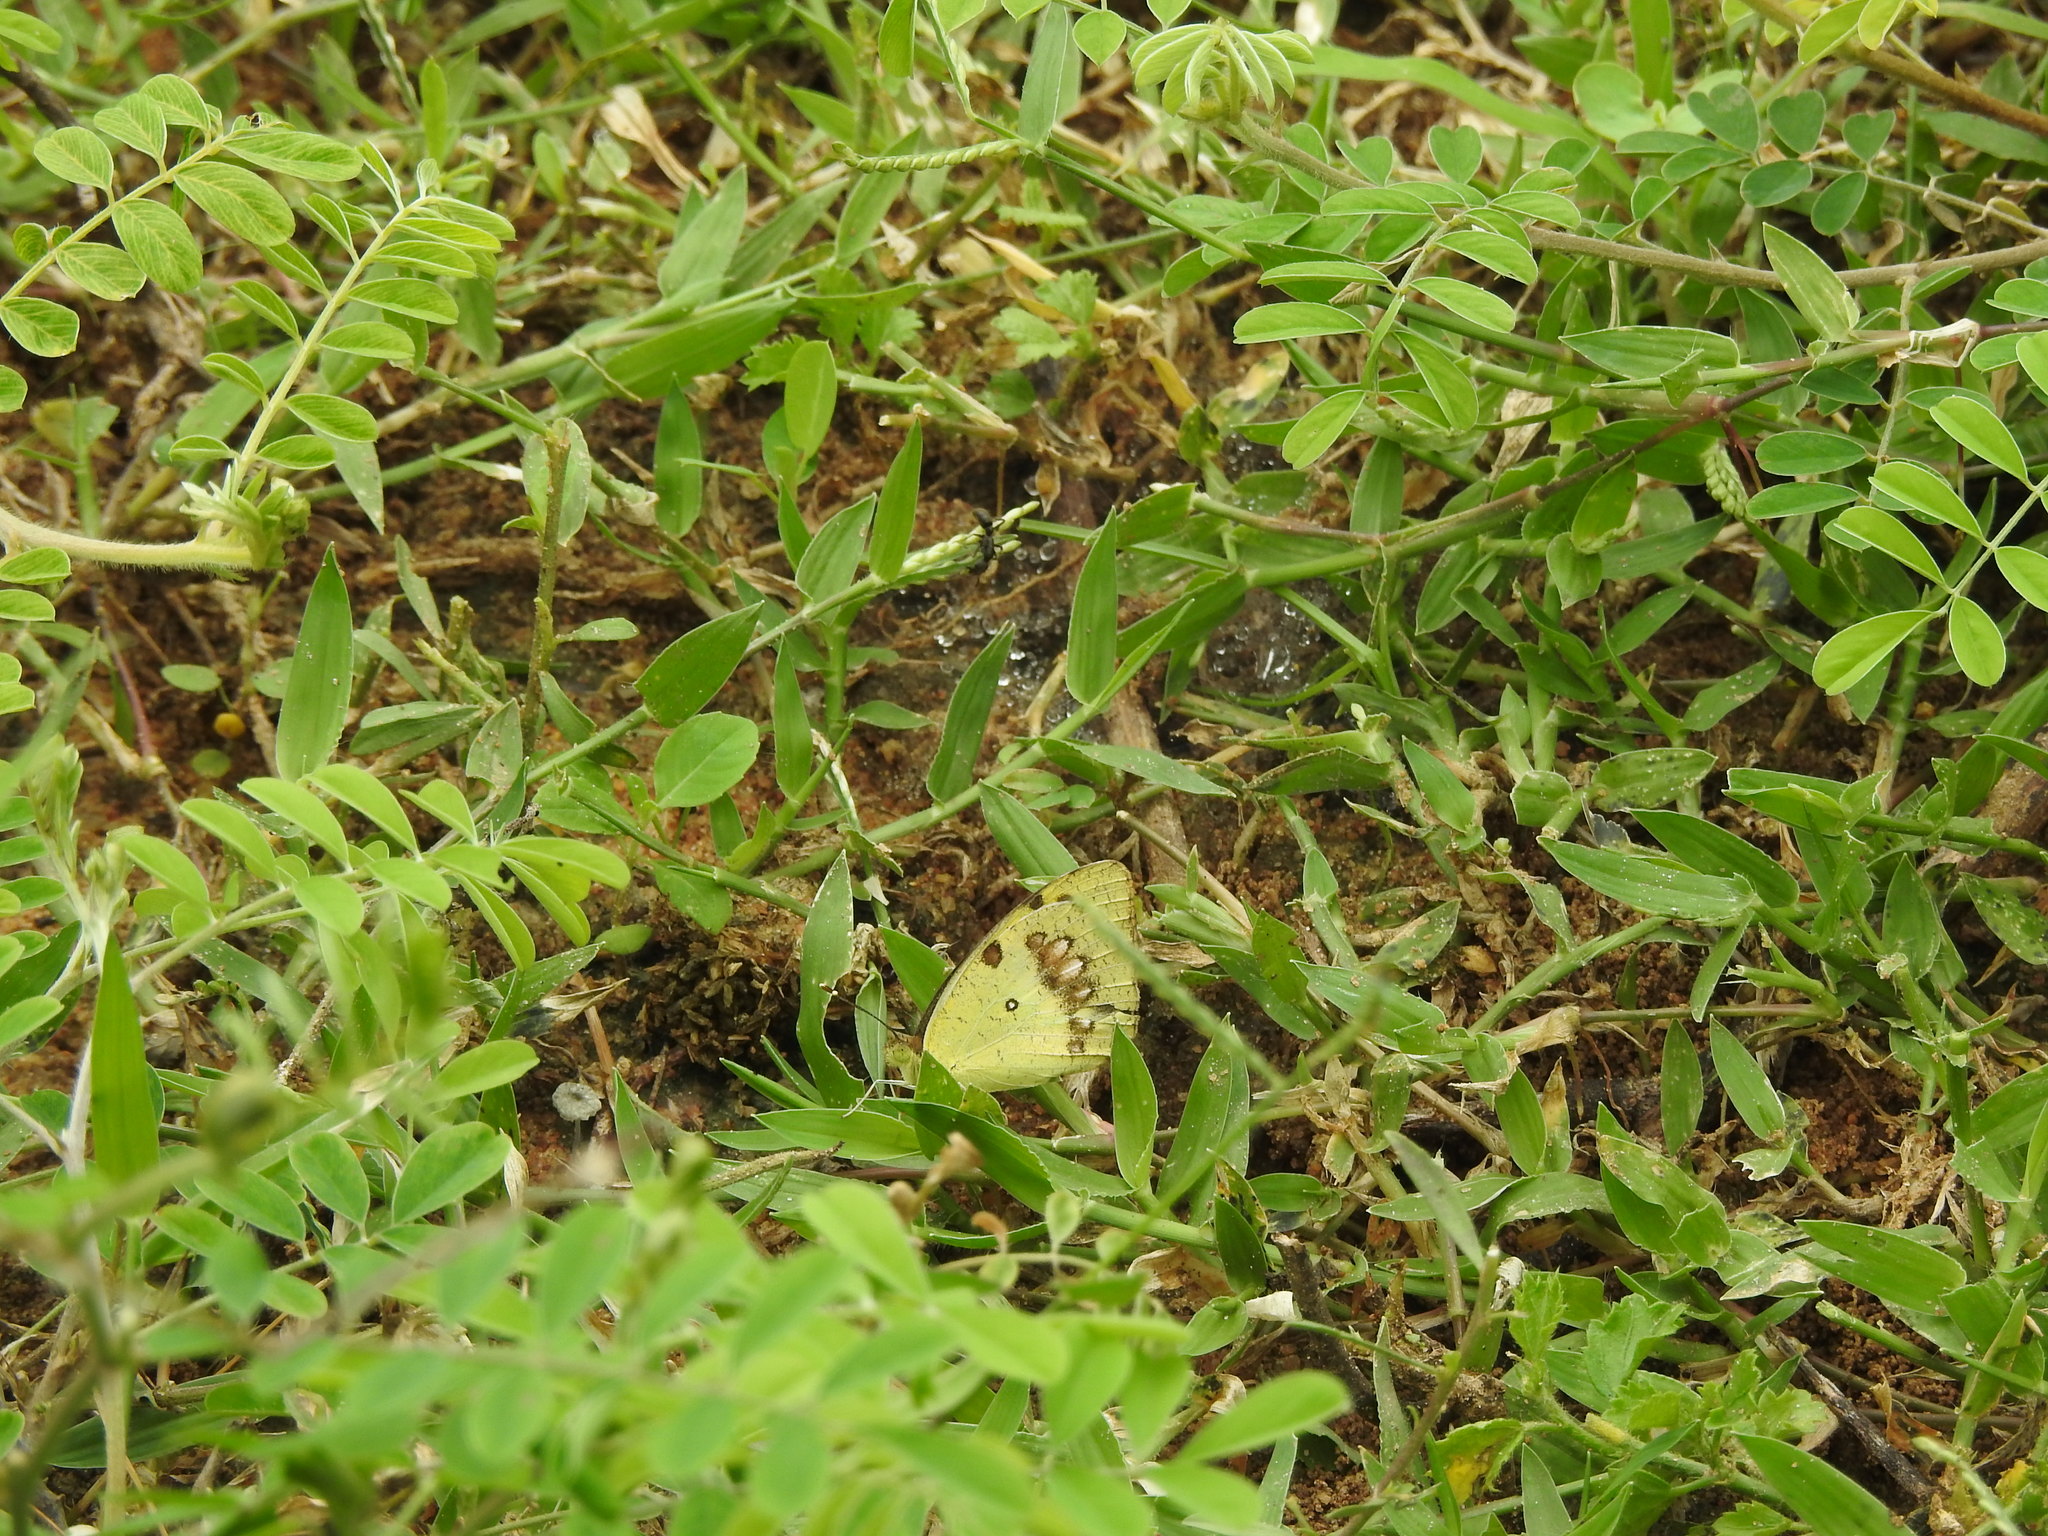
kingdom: Animalia
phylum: Arthropoda
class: Insecta
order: Lepidoptera
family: Pieridae
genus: Ixias
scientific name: Ixias marianne
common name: White orange tip
